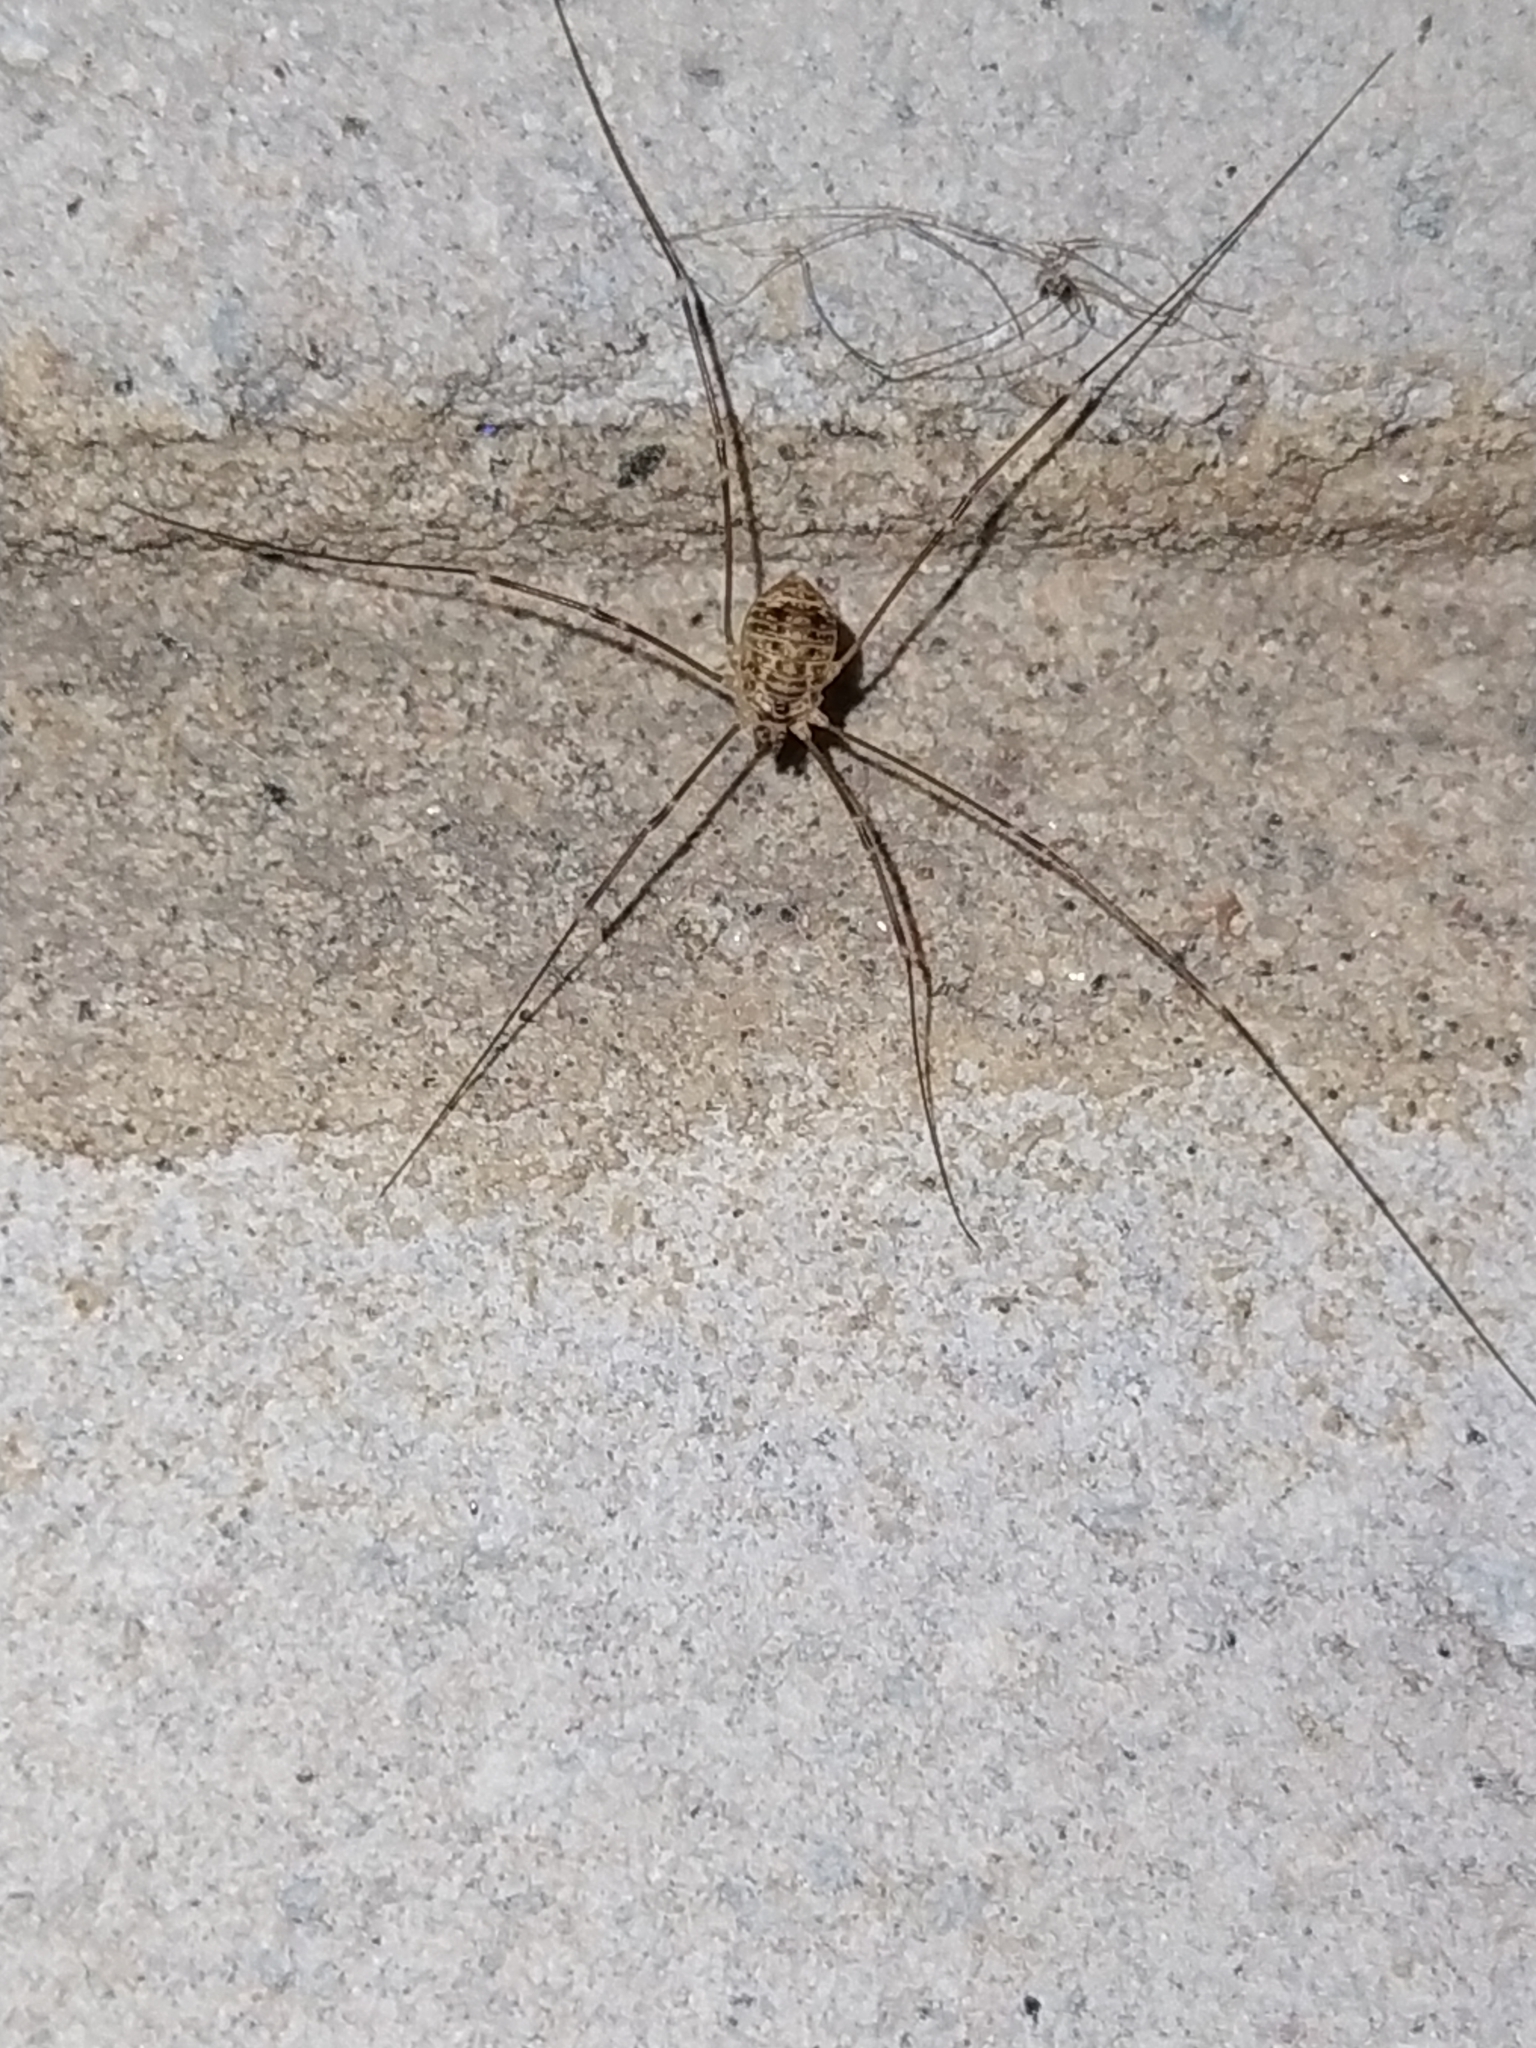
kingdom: Animalia
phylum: Arthropoda
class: Arachnida
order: Opiliones
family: Sclerosomatidae
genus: Leiobunum
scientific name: Leiobunum gracile
